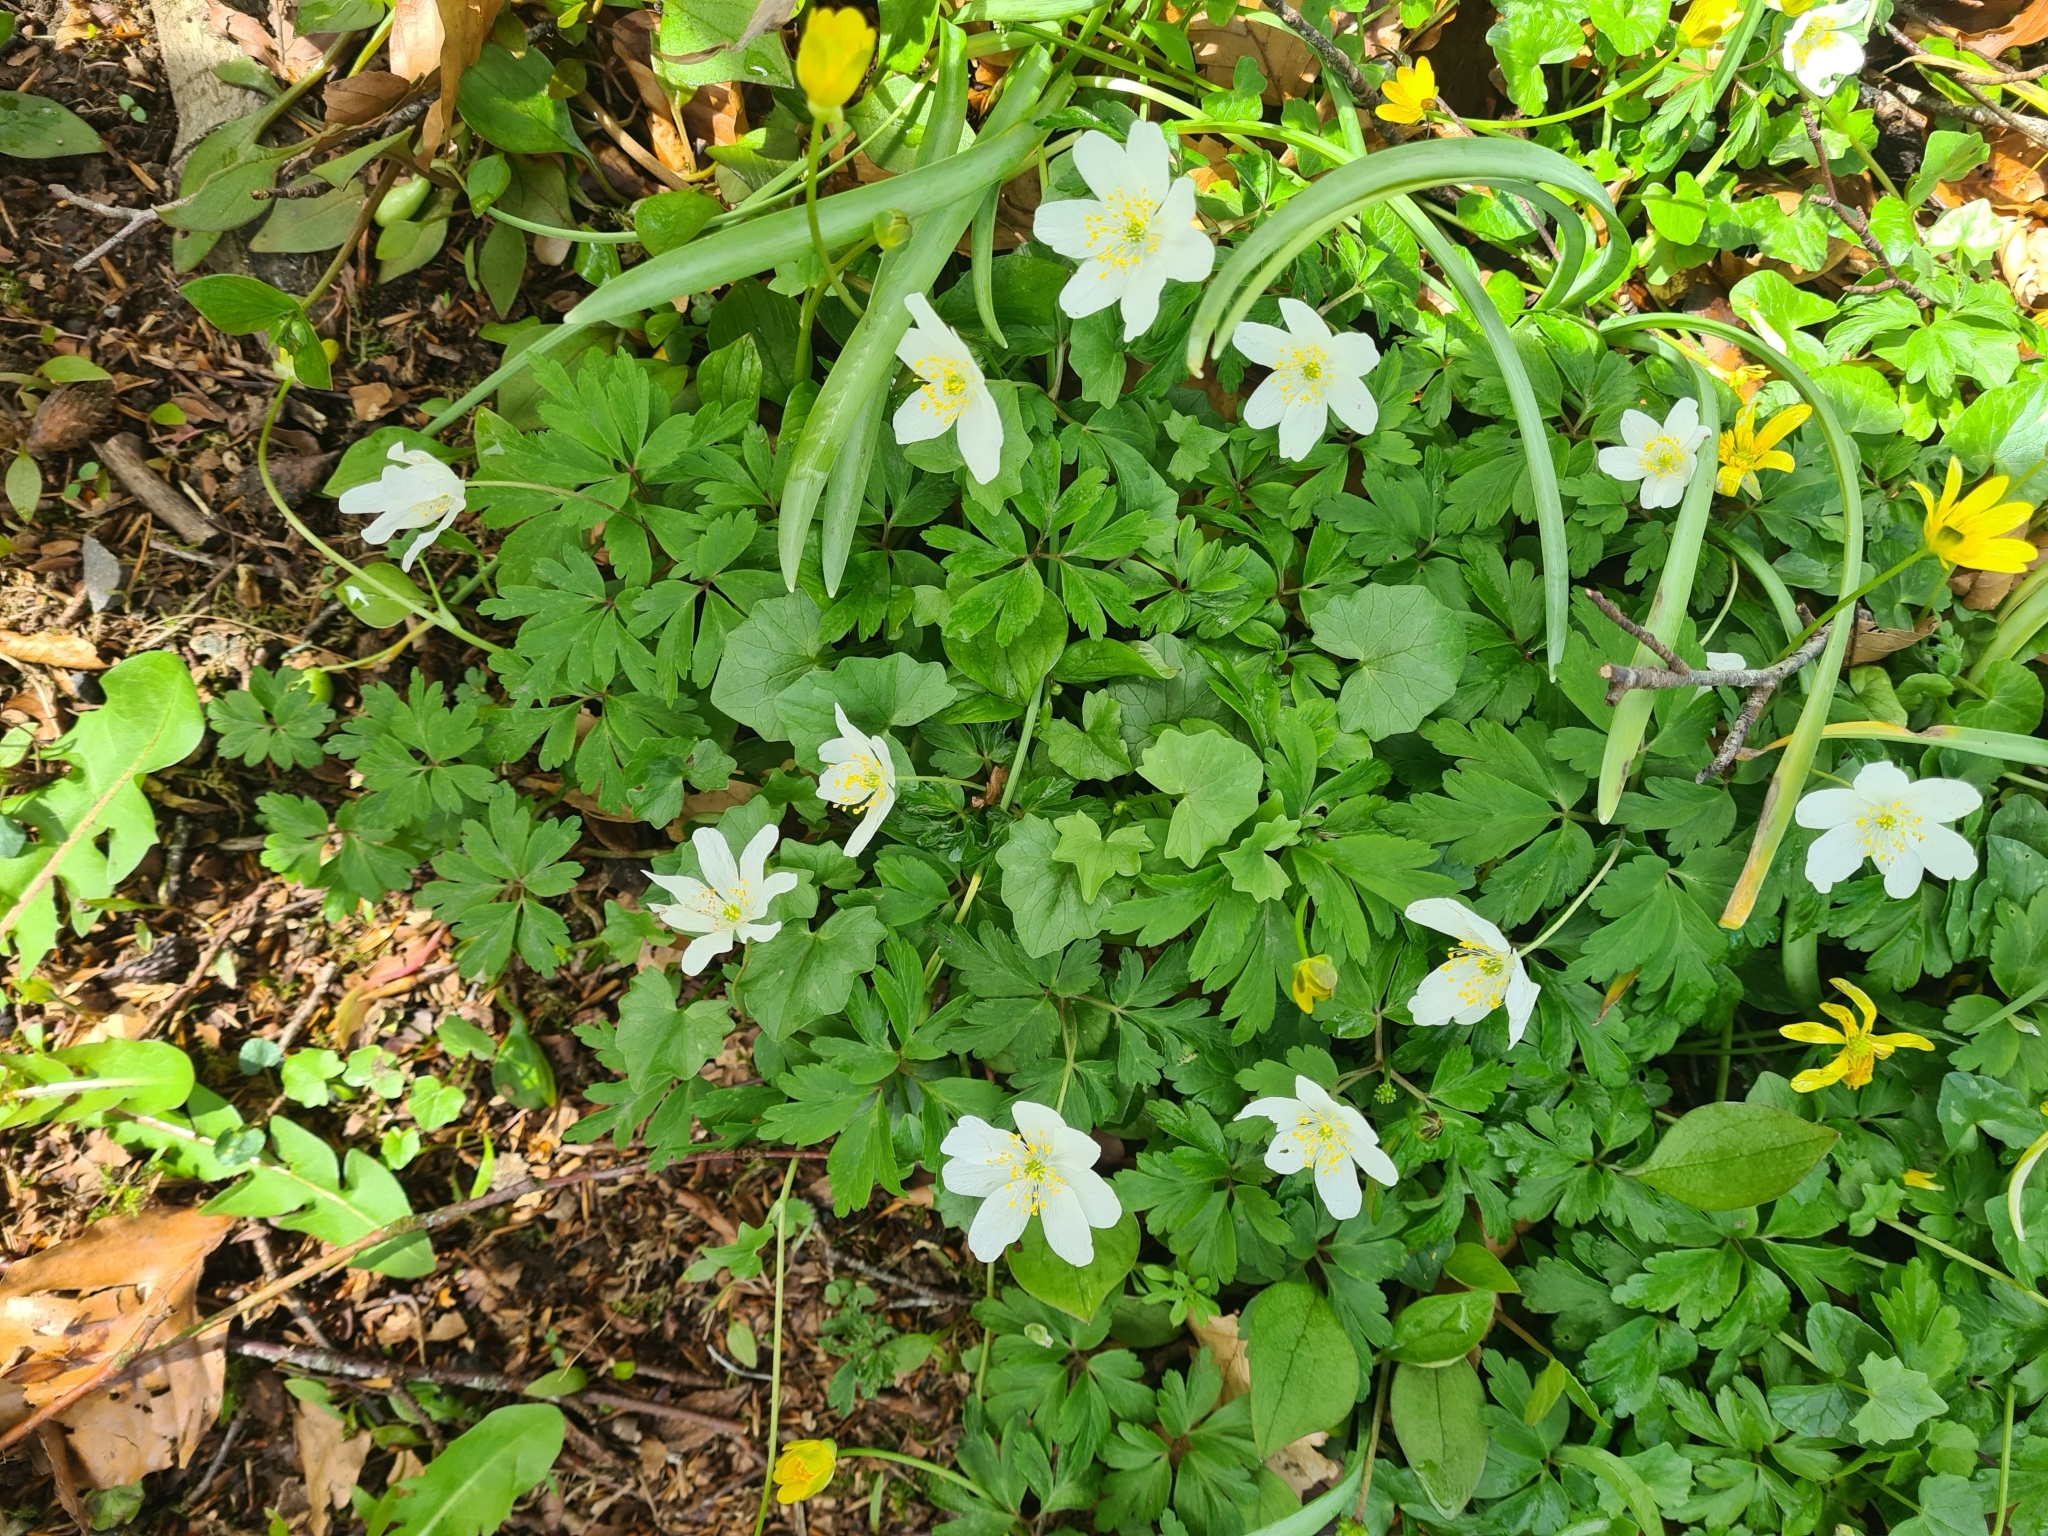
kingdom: Plantae
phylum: Tracheophyta
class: Magnoliopsida
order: Ranunculales
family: Ranunculaceae
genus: Anemone
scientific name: Anemone nemorosa
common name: Wood anemone
